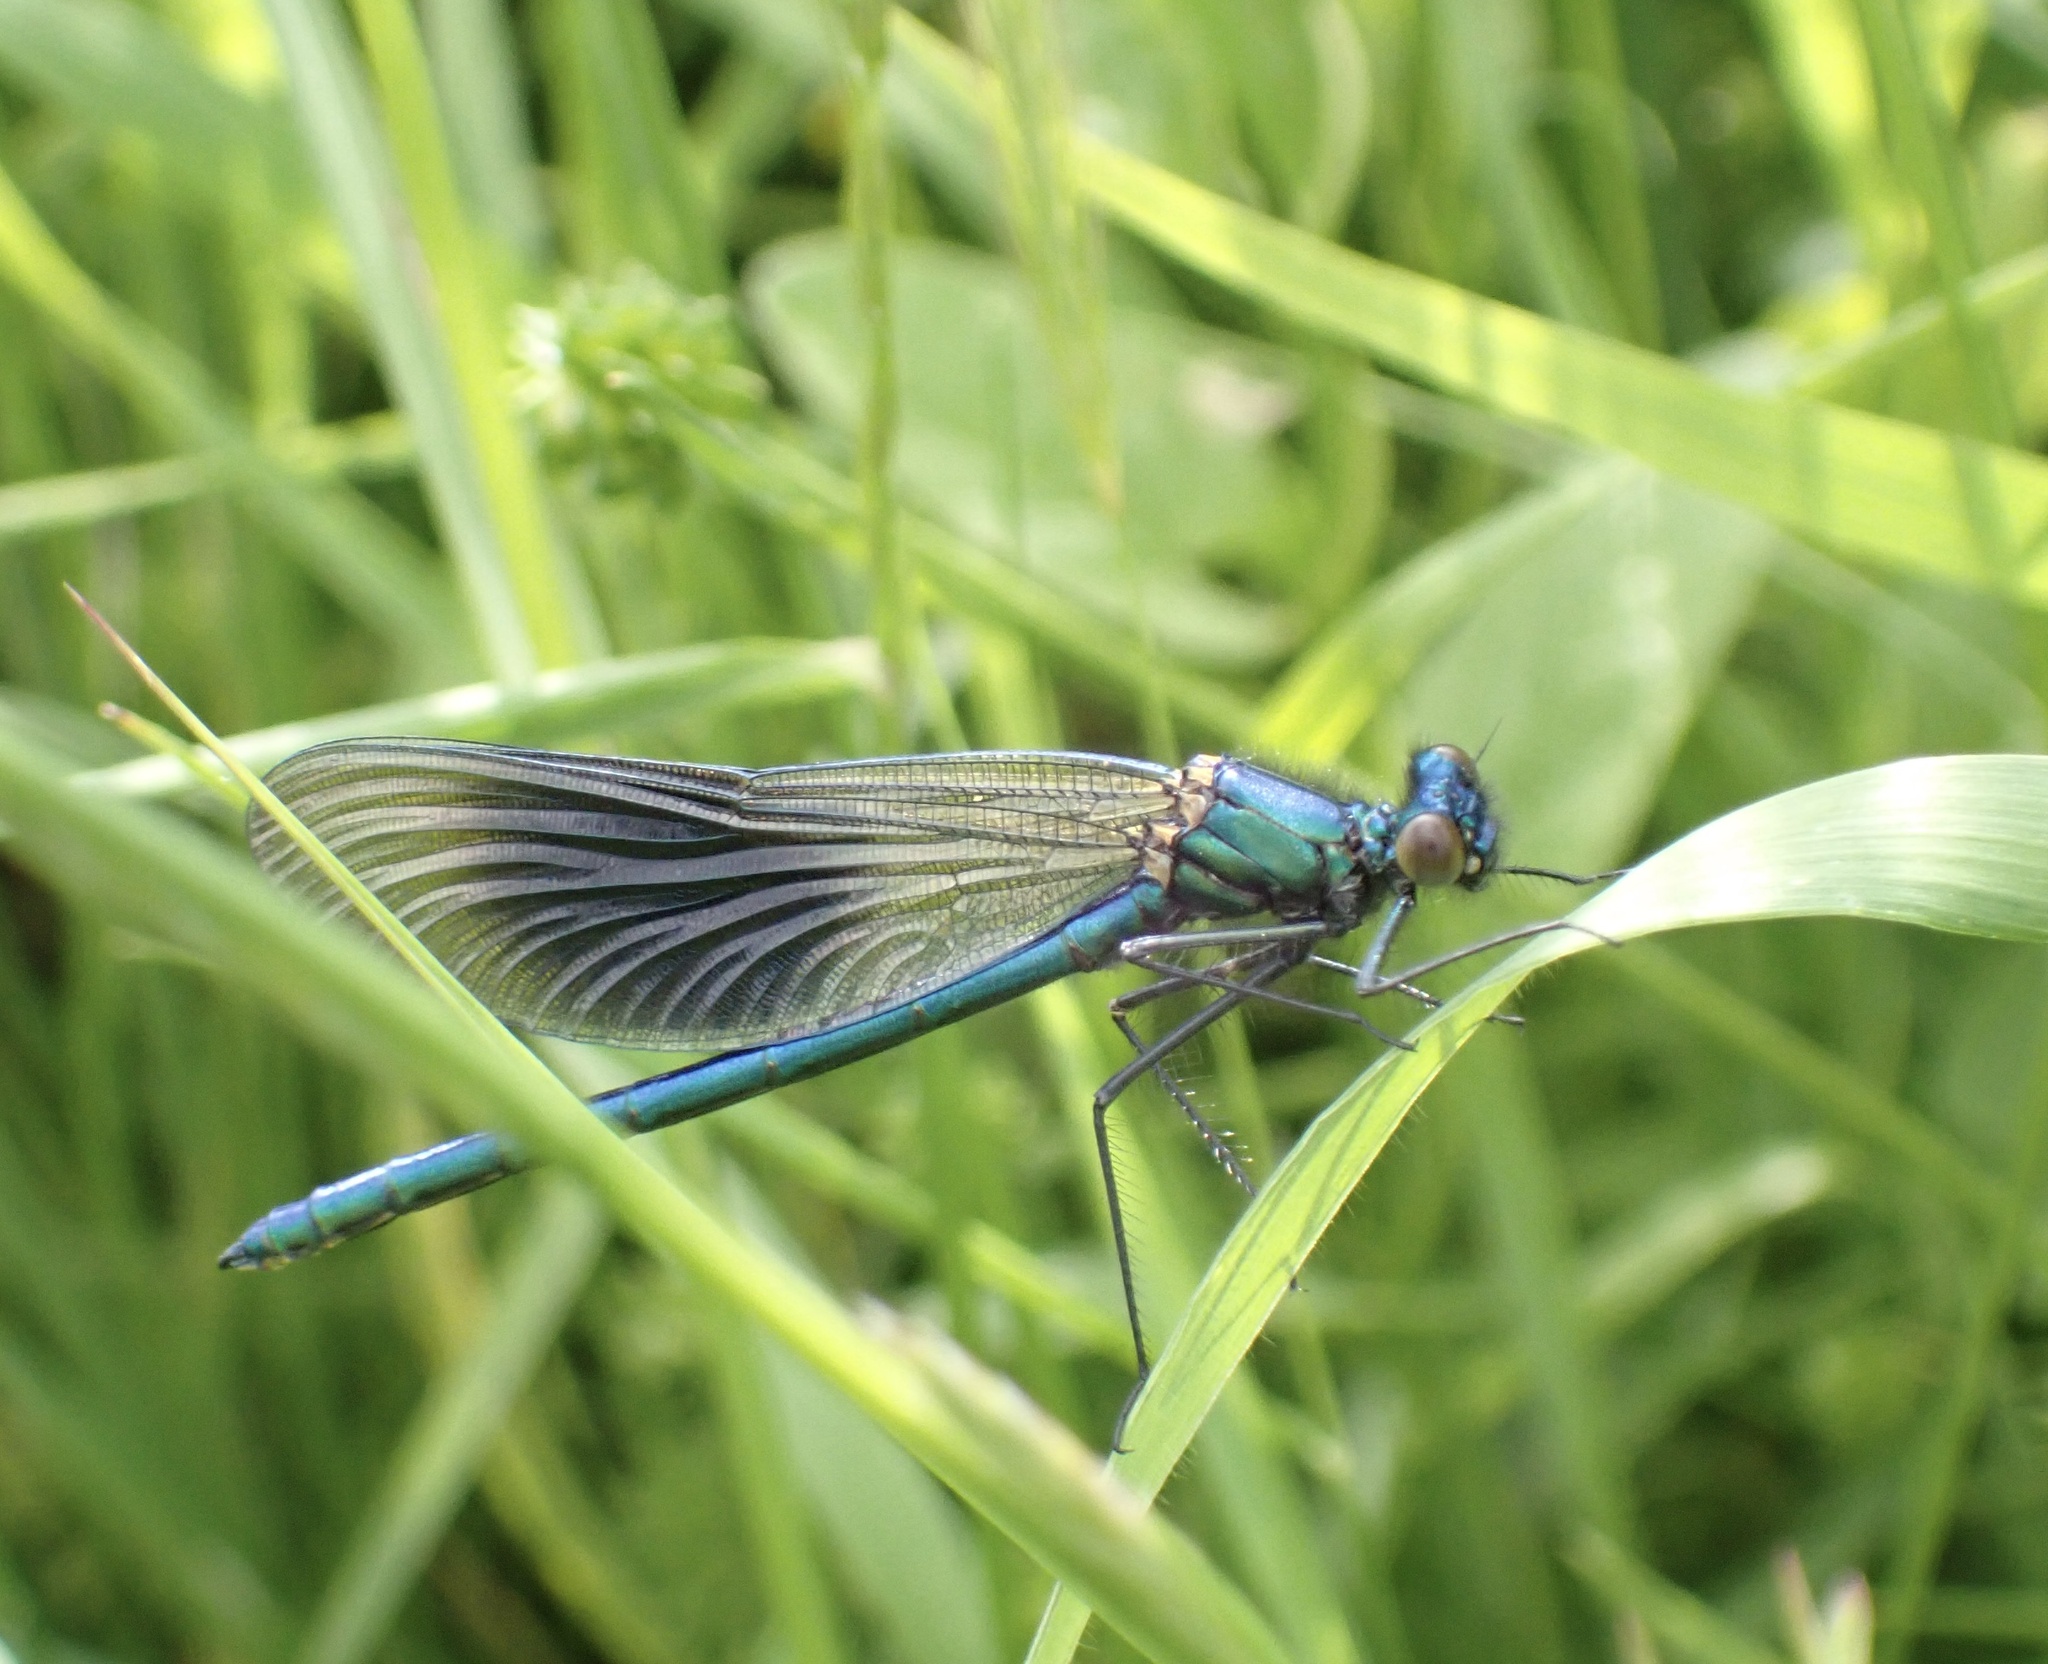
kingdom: Animalia
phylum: Arthropoda
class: Insecta
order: Odonata
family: Calopterygidae
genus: Calopteryx
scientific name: Calopteryx splendens
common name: Banded demoiselle
